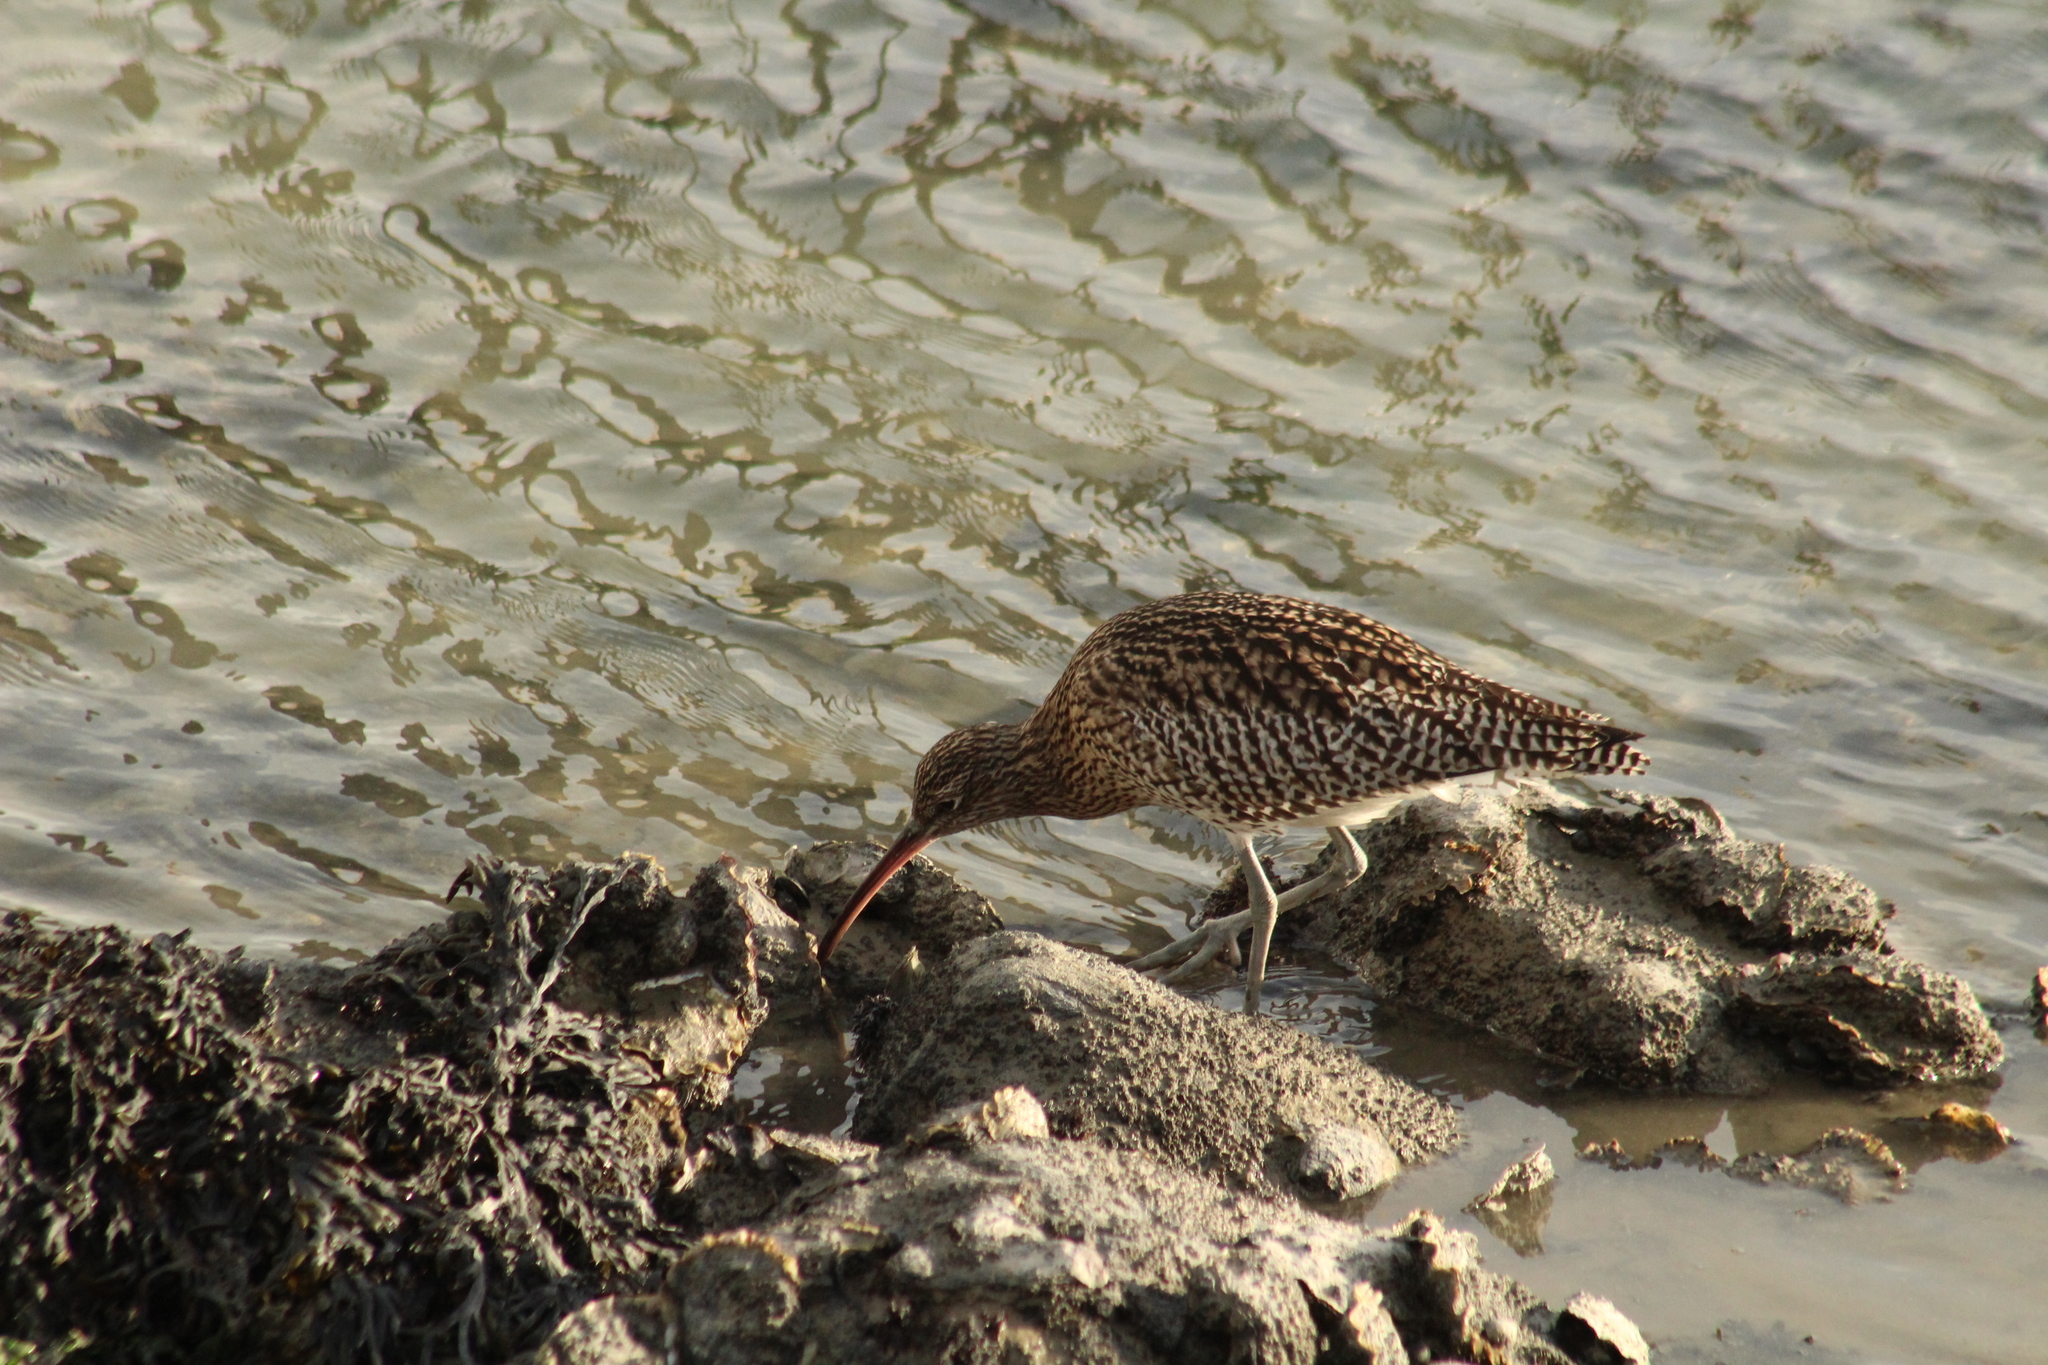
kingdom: Animalia
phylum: Chordata
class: Aves
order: Charadriiformes
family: Scolopacidae
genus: Numenius
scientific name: Numenius arquata
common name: Eurasian curlew
